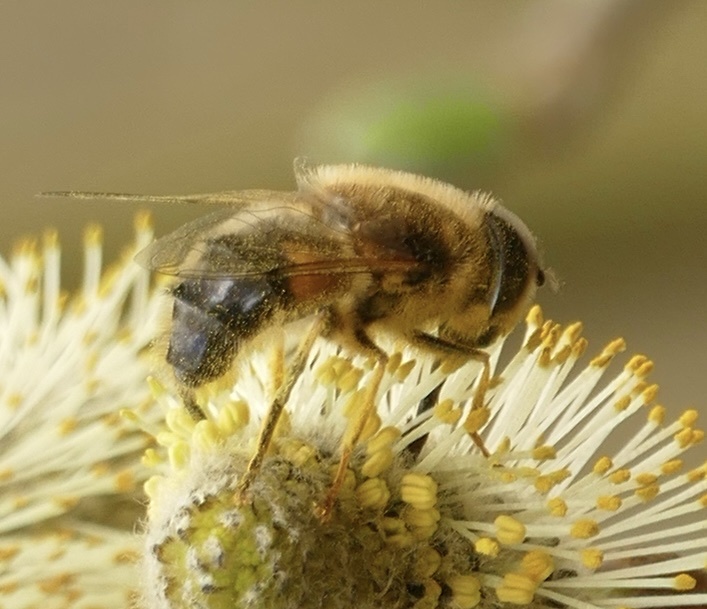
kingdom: Animalia
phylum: Arthropoda
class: Insecta
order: Diptera
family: Syrphidae
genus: Eristalis
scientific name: Eristalis pertinax
